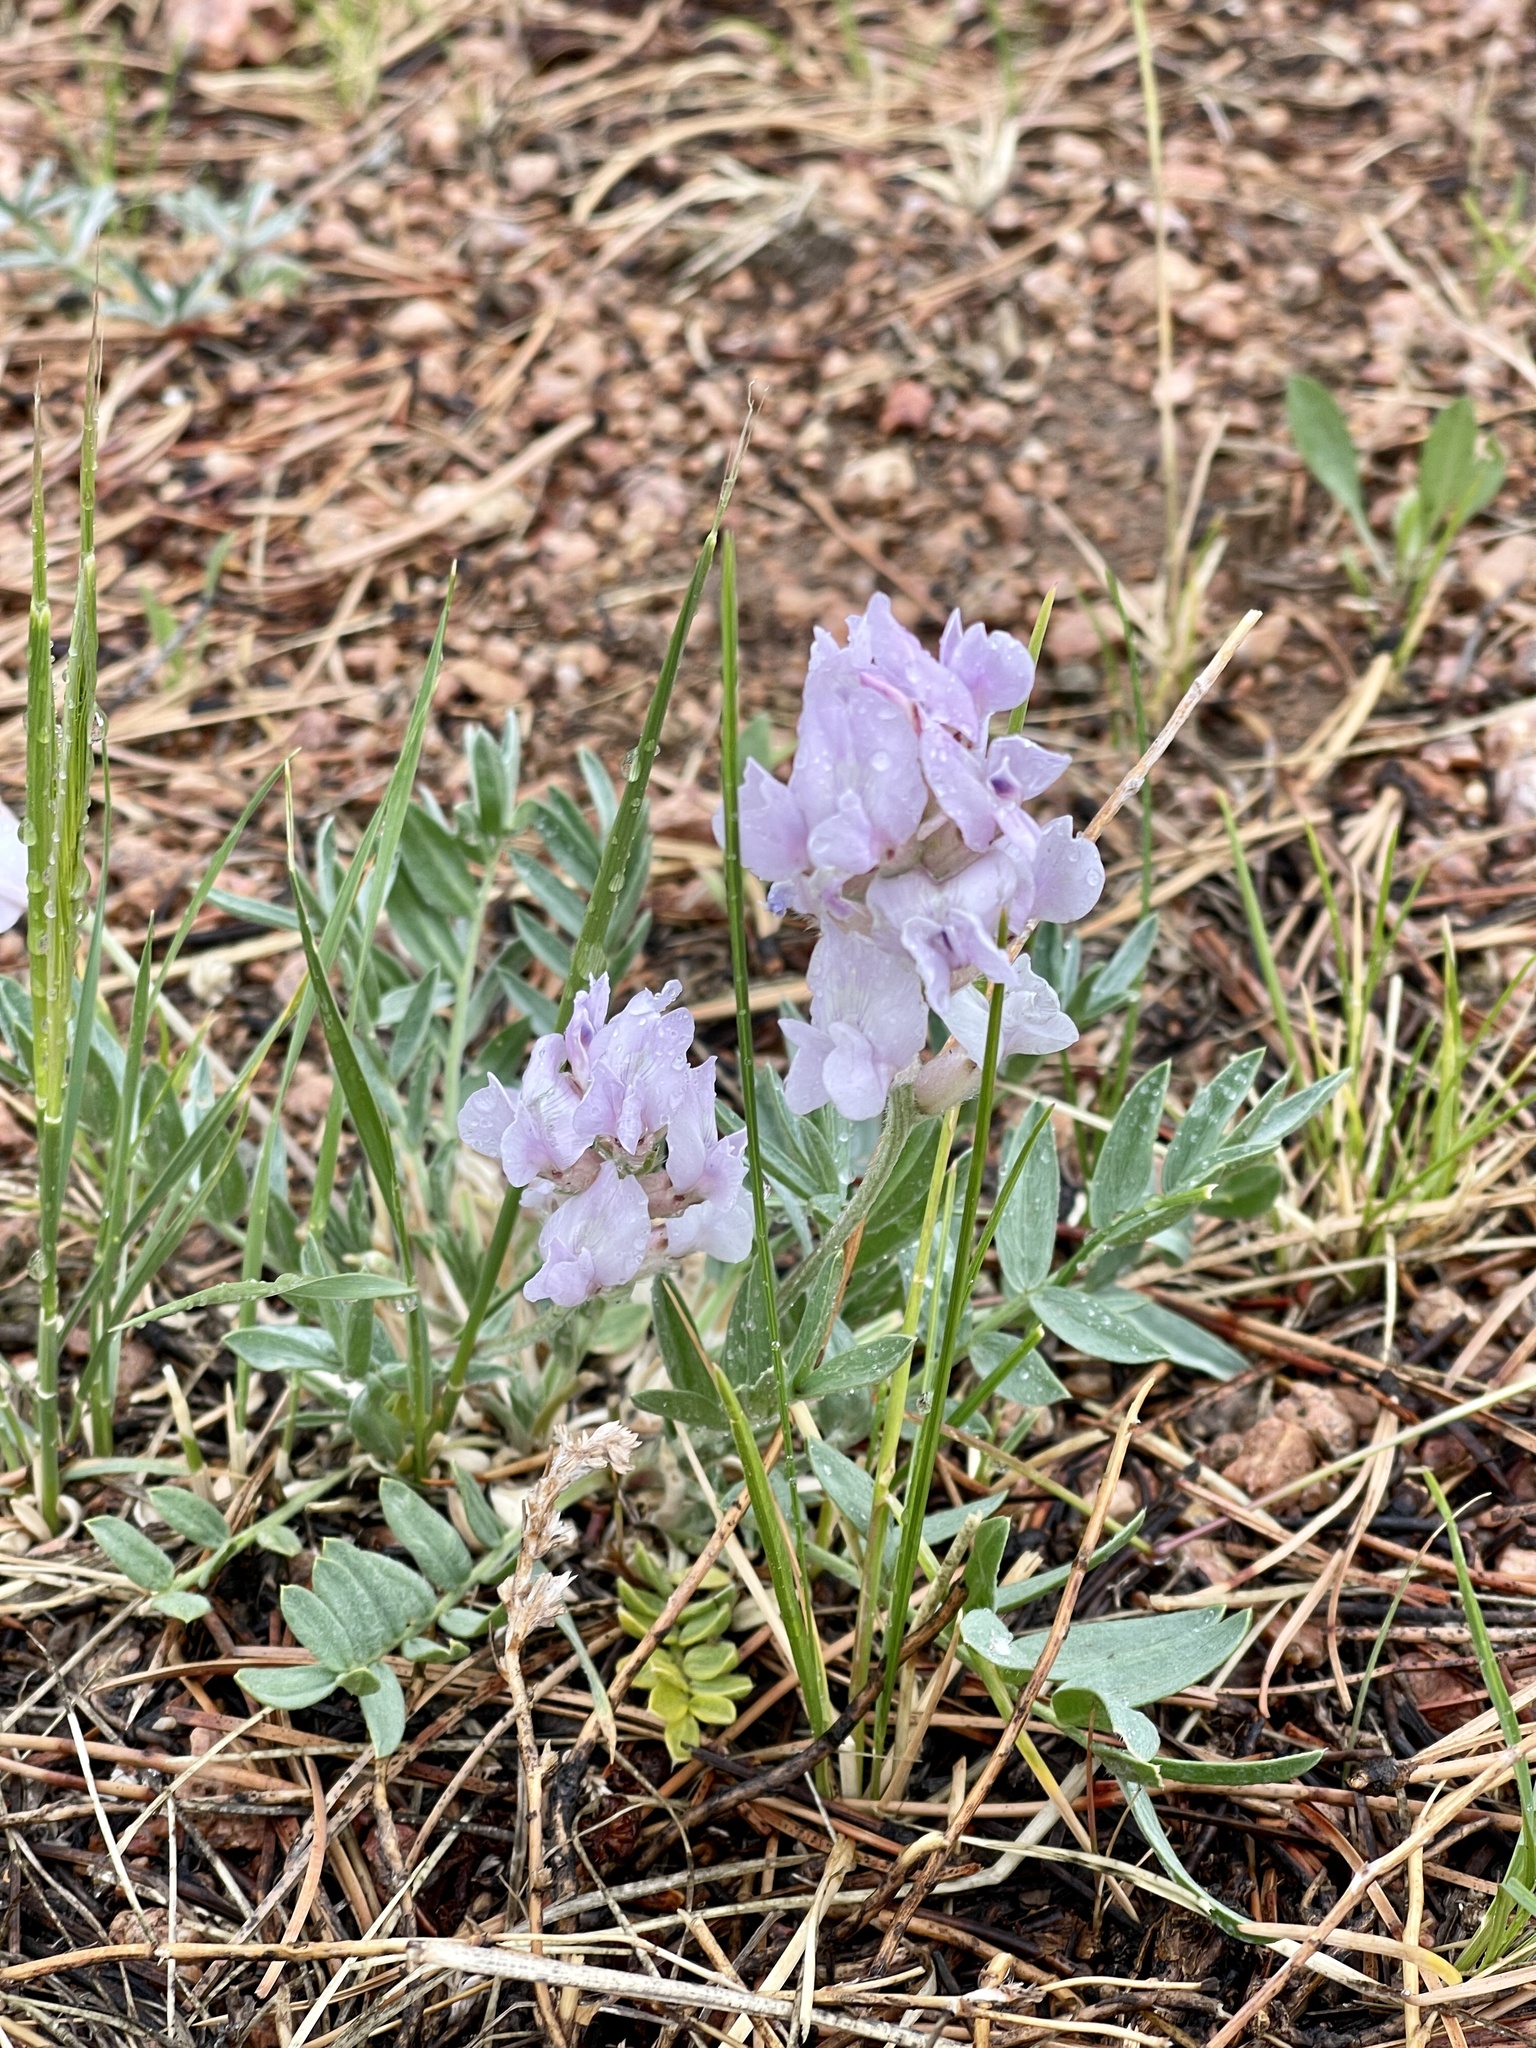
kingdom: Plantae
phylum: Tracheophyta
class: Magnoliopsida
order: Fabales
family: Fabaceae
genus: Oxytropis
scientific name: Oxytropis sericea
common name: Silky locoweed
